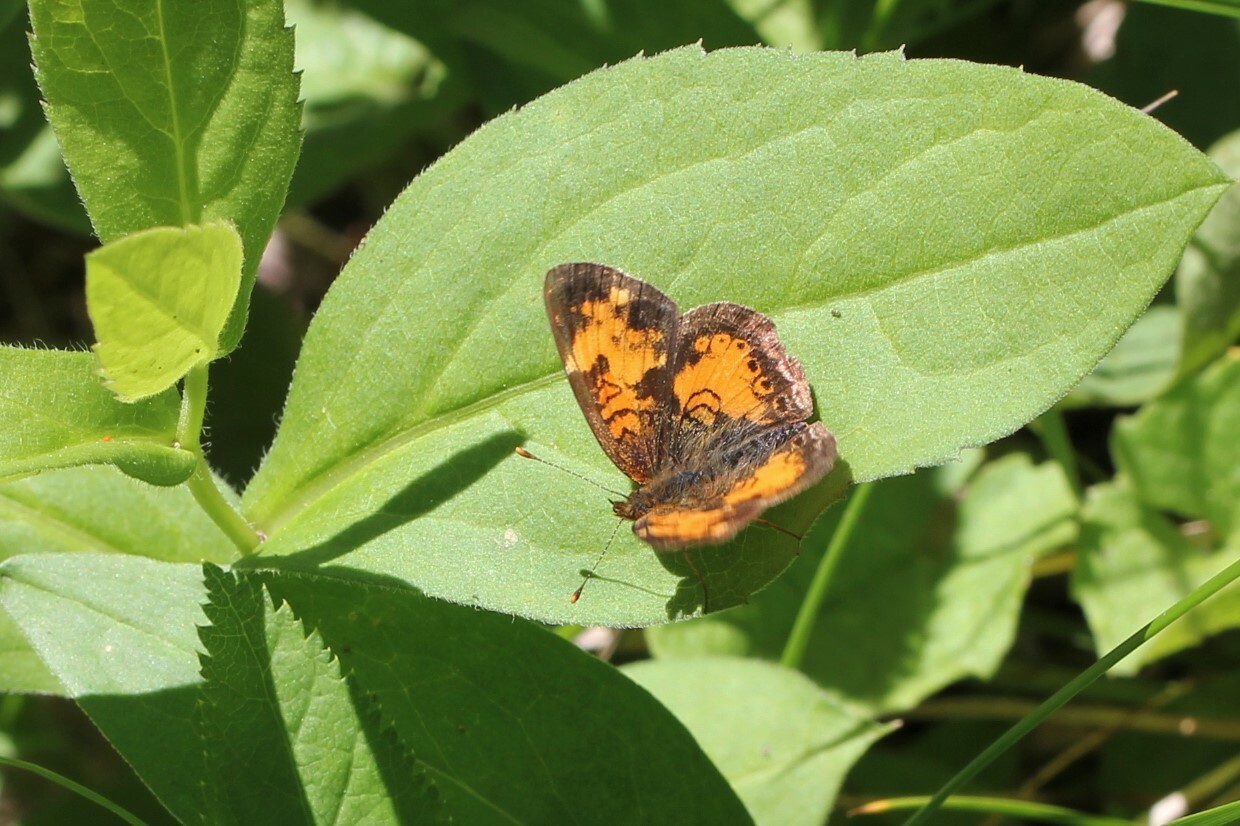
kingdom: Animalia
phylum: Arthropoda
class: Insecta
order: Lepidoptera
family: Nymphalidae
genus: Phyciodes
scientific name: Phyciodes tharos
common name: Pearl crescent
